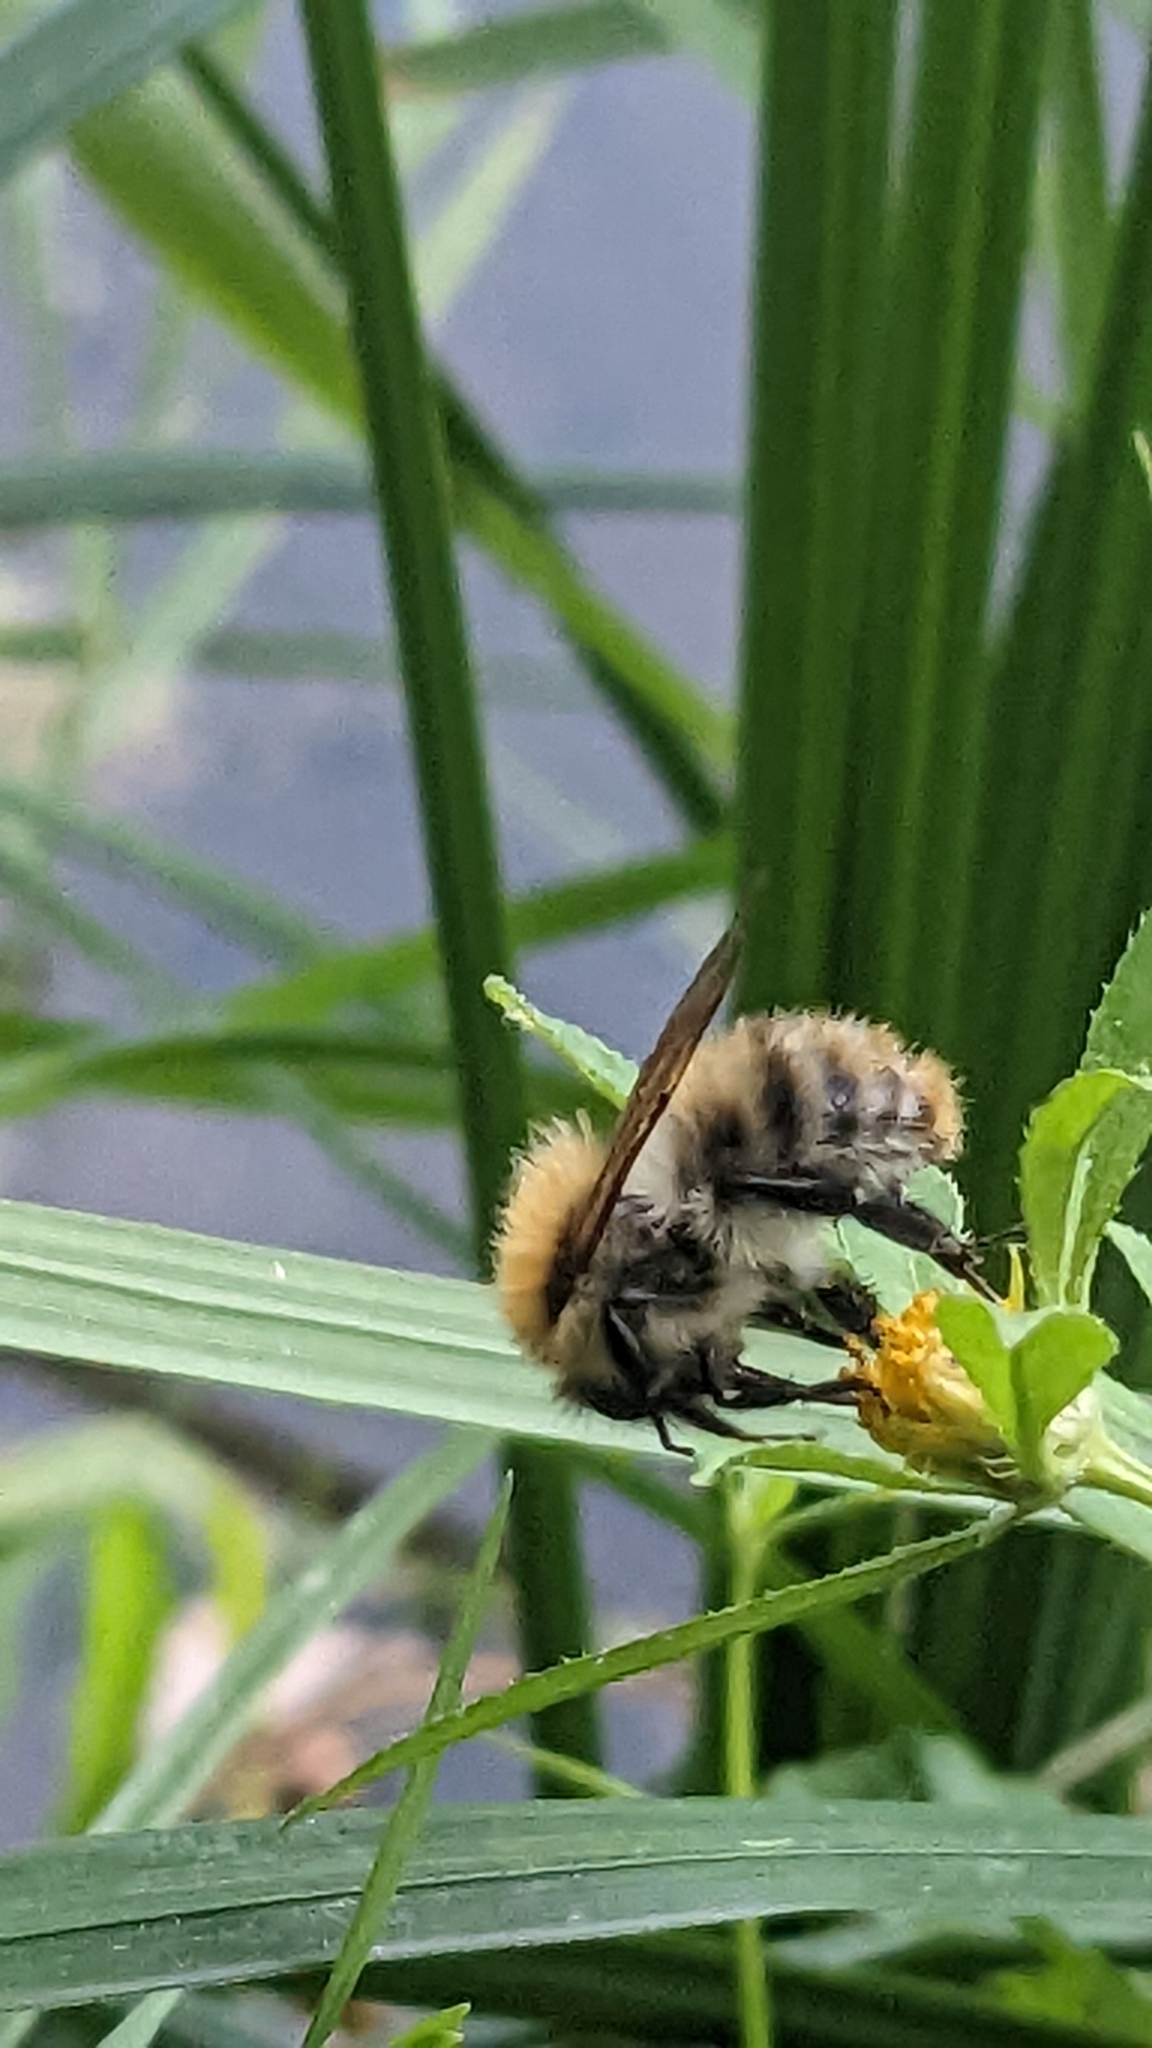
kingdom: Animalia
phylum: Arthropoda
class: Insecta
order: Hymenoptera
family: Apidae
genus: Bombus
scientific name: Bombus pascuorum
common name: Common carder bee
